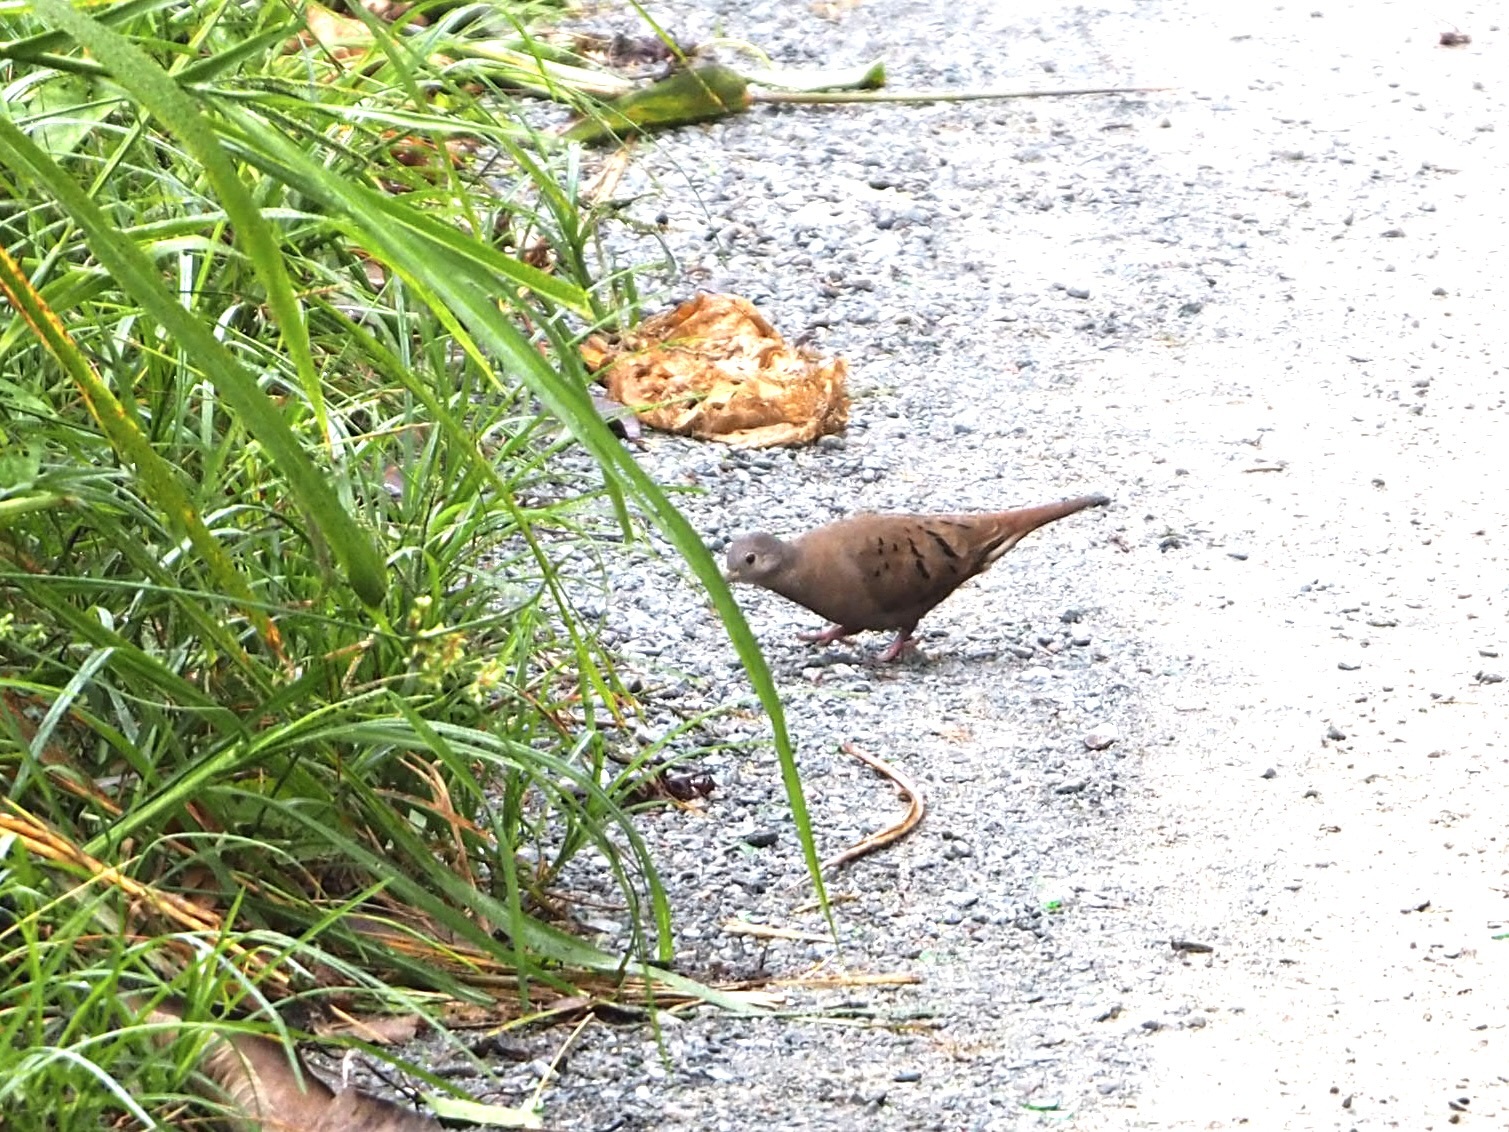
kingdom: Animalia
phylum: Chordata
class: Aves
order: Columbiformes
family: Columbidae
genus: Columbina
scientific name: Columbina talpacoti
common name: Ruddy ground dove
